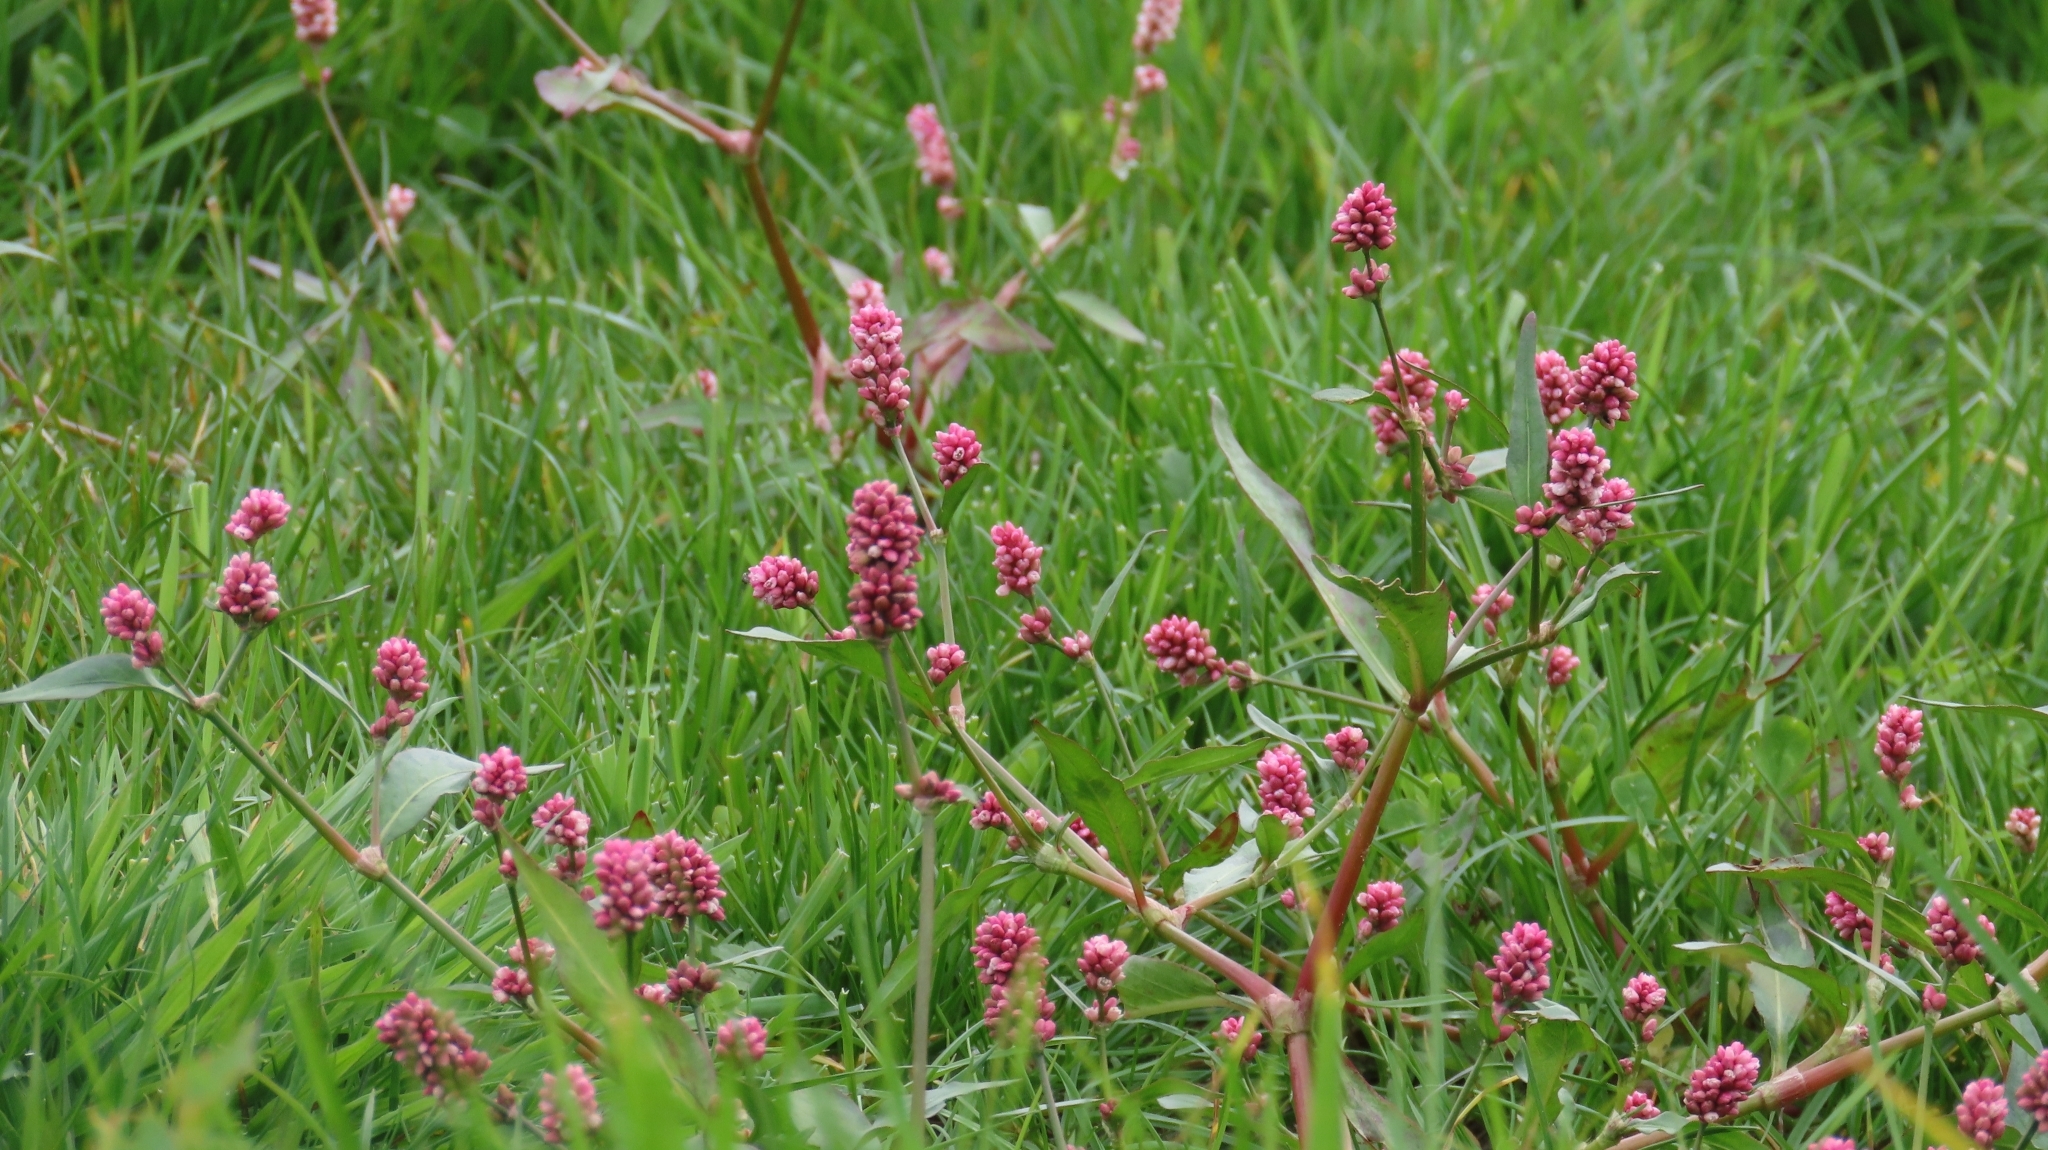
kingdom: Plantae
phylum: Tracheophyta
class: Magnoliopsida
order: Caryophyllales
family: Polygonaceae
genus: Persicaria
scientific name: Persicaria maculosa
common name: Redshank
